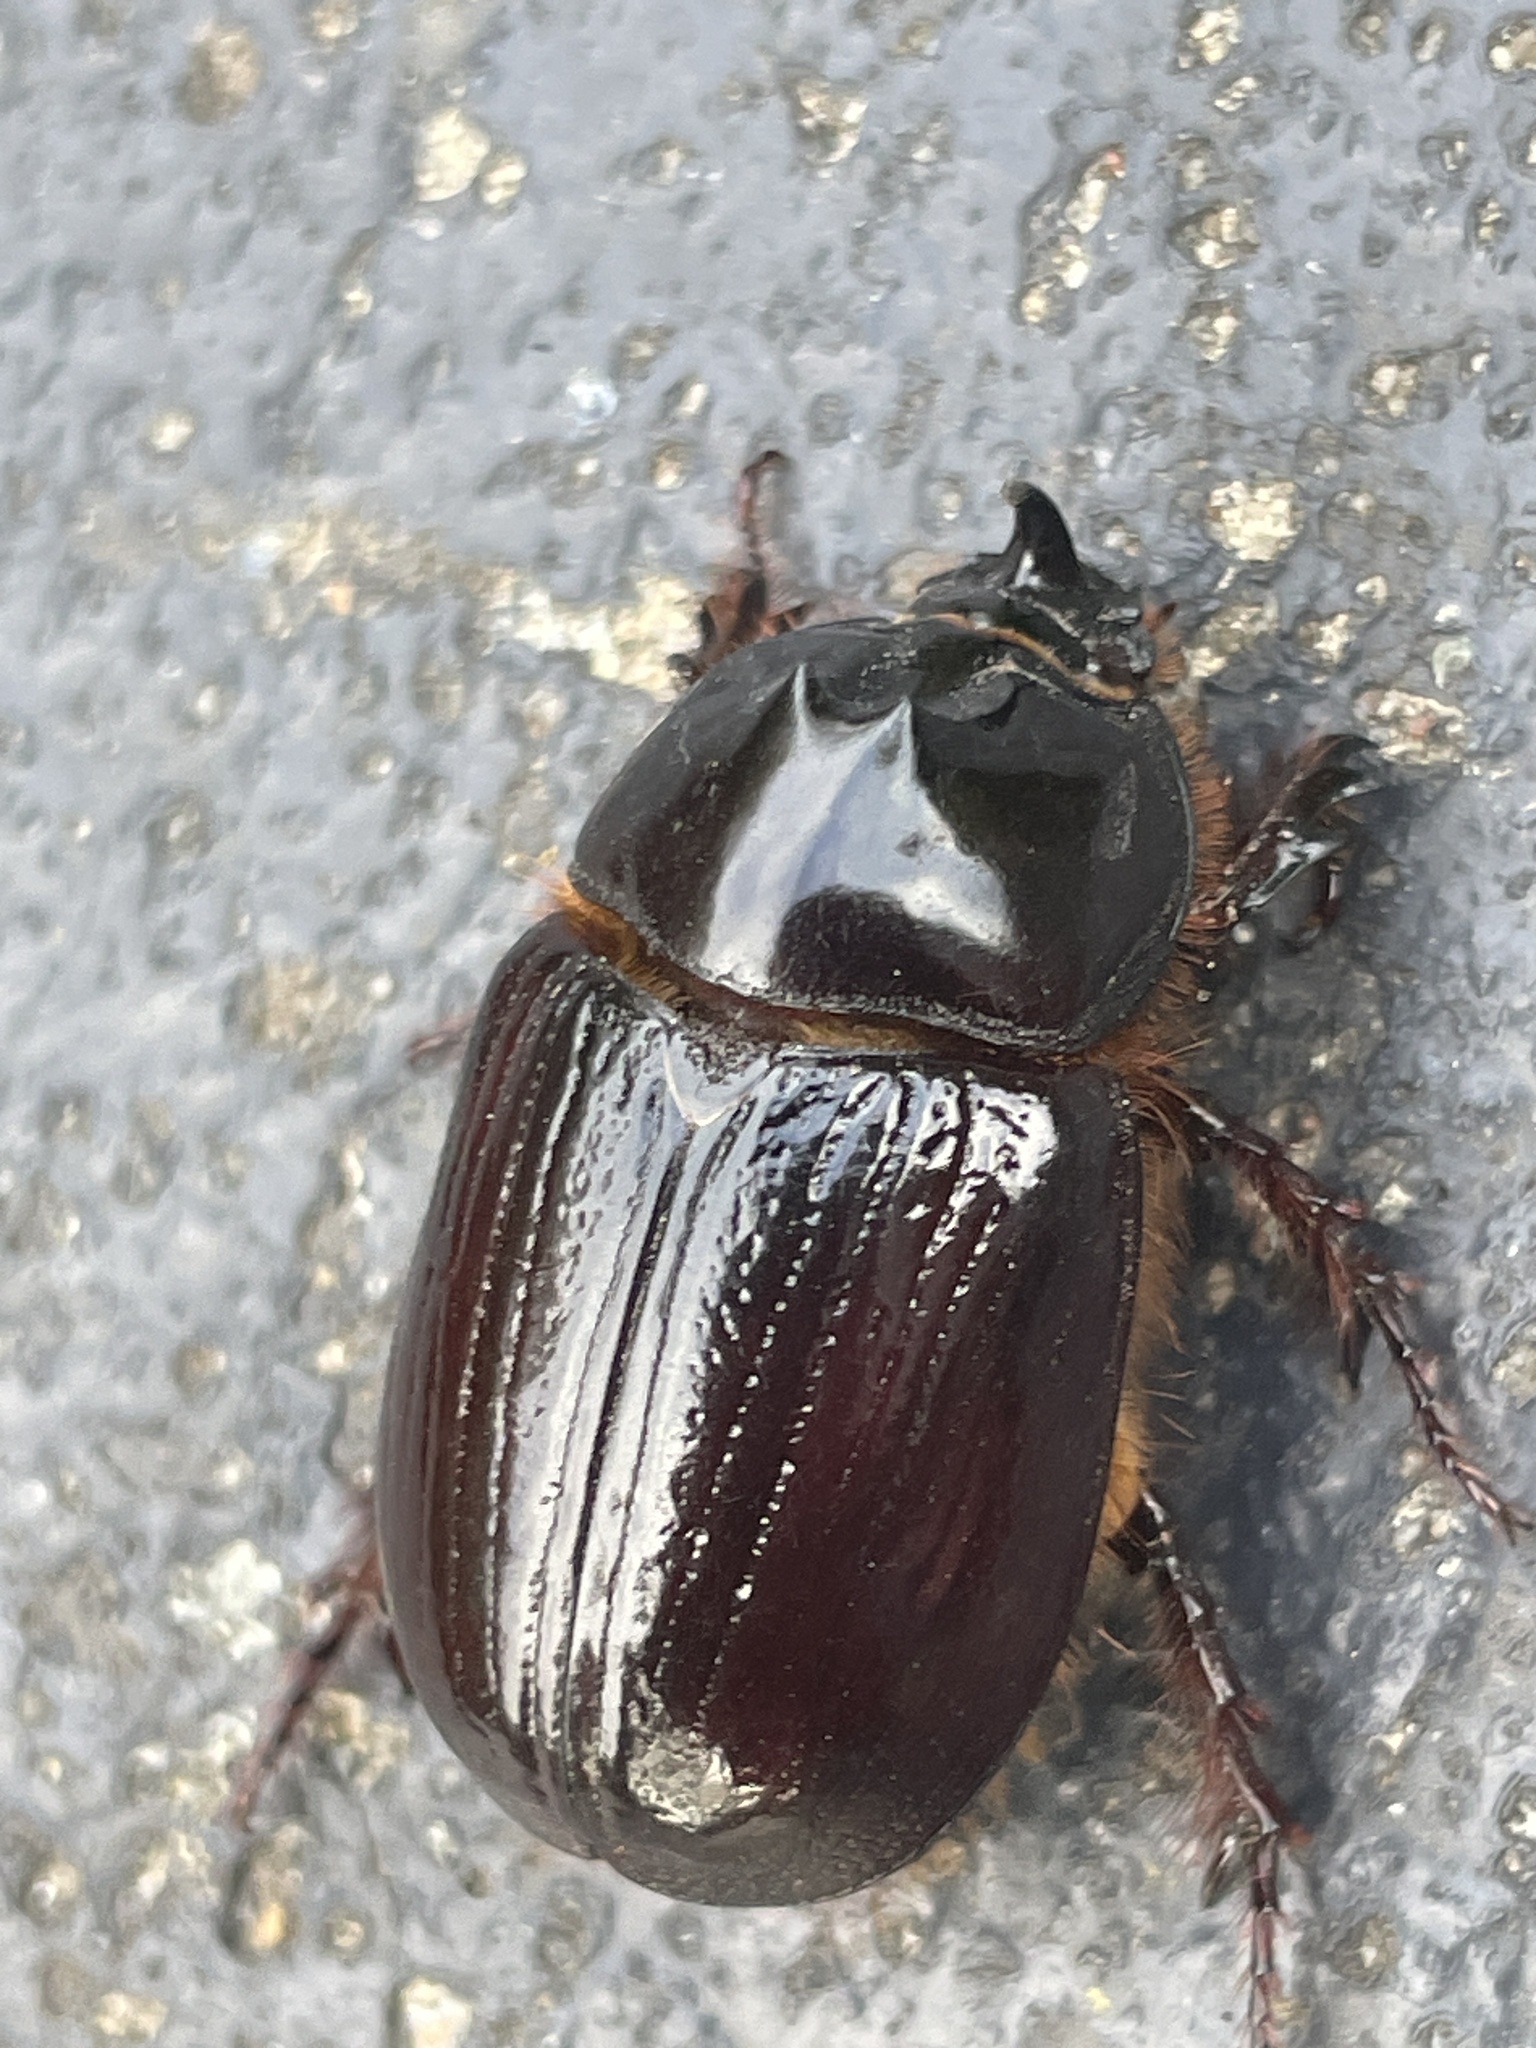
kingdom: Animalia
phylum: Arthropoda
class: Insecta
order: Coleoptera
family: Scarabaeidae
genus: Dasygnathus
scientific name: Dasygnathus trituberculatus
